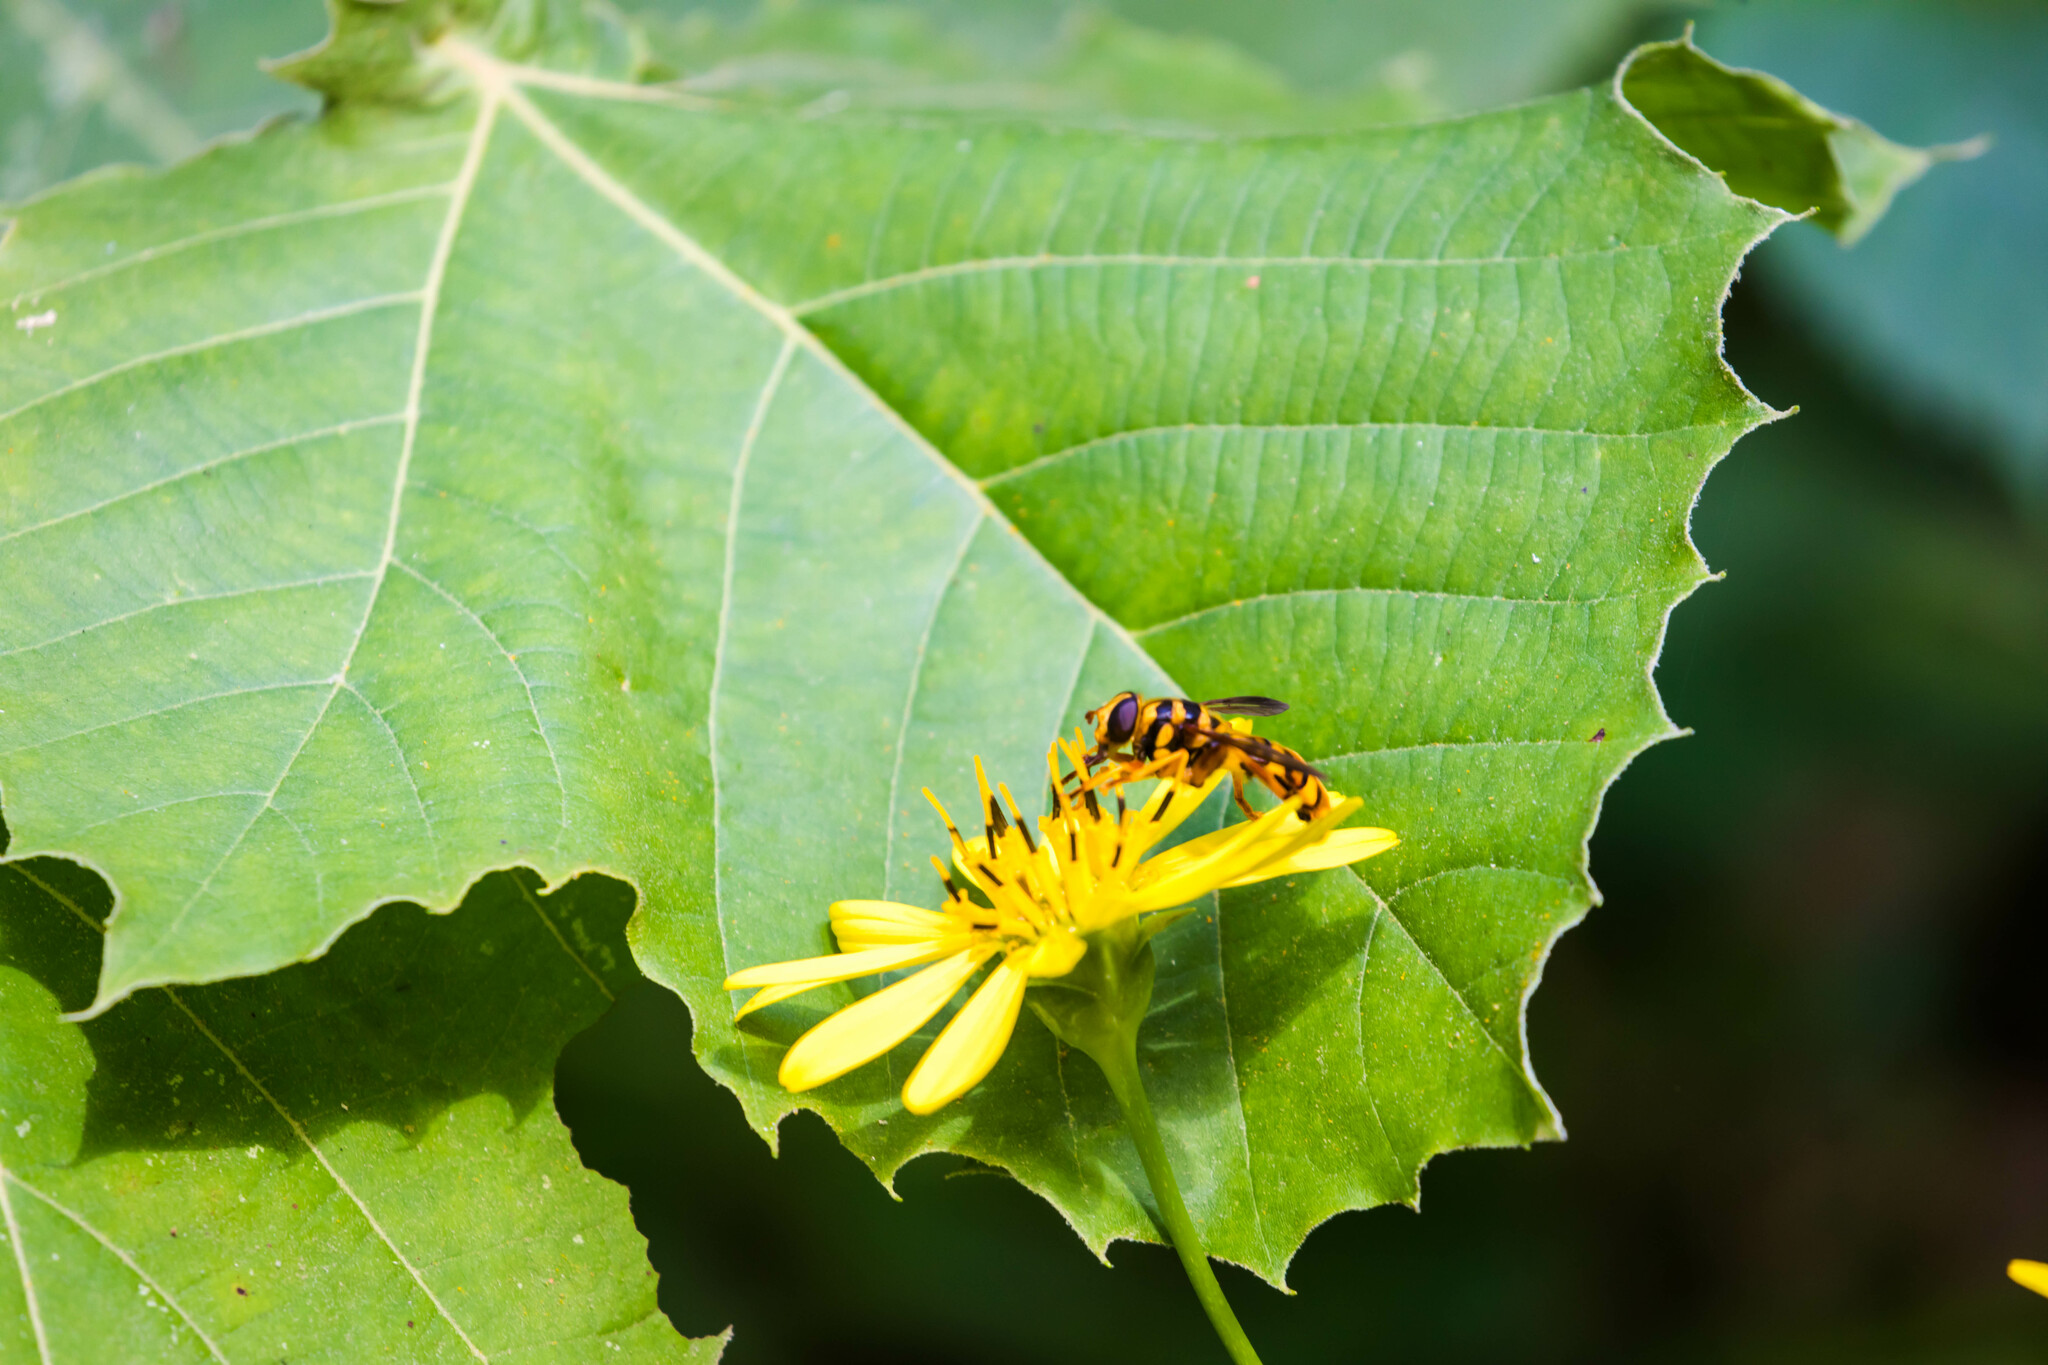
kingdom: Animalia
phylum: Arthropoda
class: Insecta
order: Diptera
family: Syrphidae
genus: Milesia
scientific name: Milesia virginiensis
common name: Virginia giant
